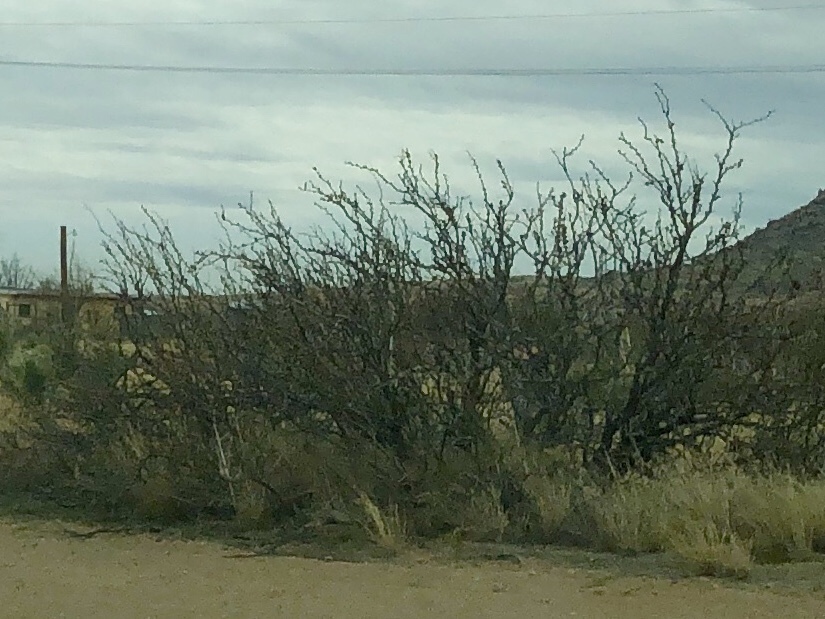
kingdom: Plantae
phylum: Tracheophyta
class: Magnoliopsida
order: Fabales
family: Fabaceae
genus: Prosopis
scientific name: Prosopis glandulosa
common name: Honey mesquite
